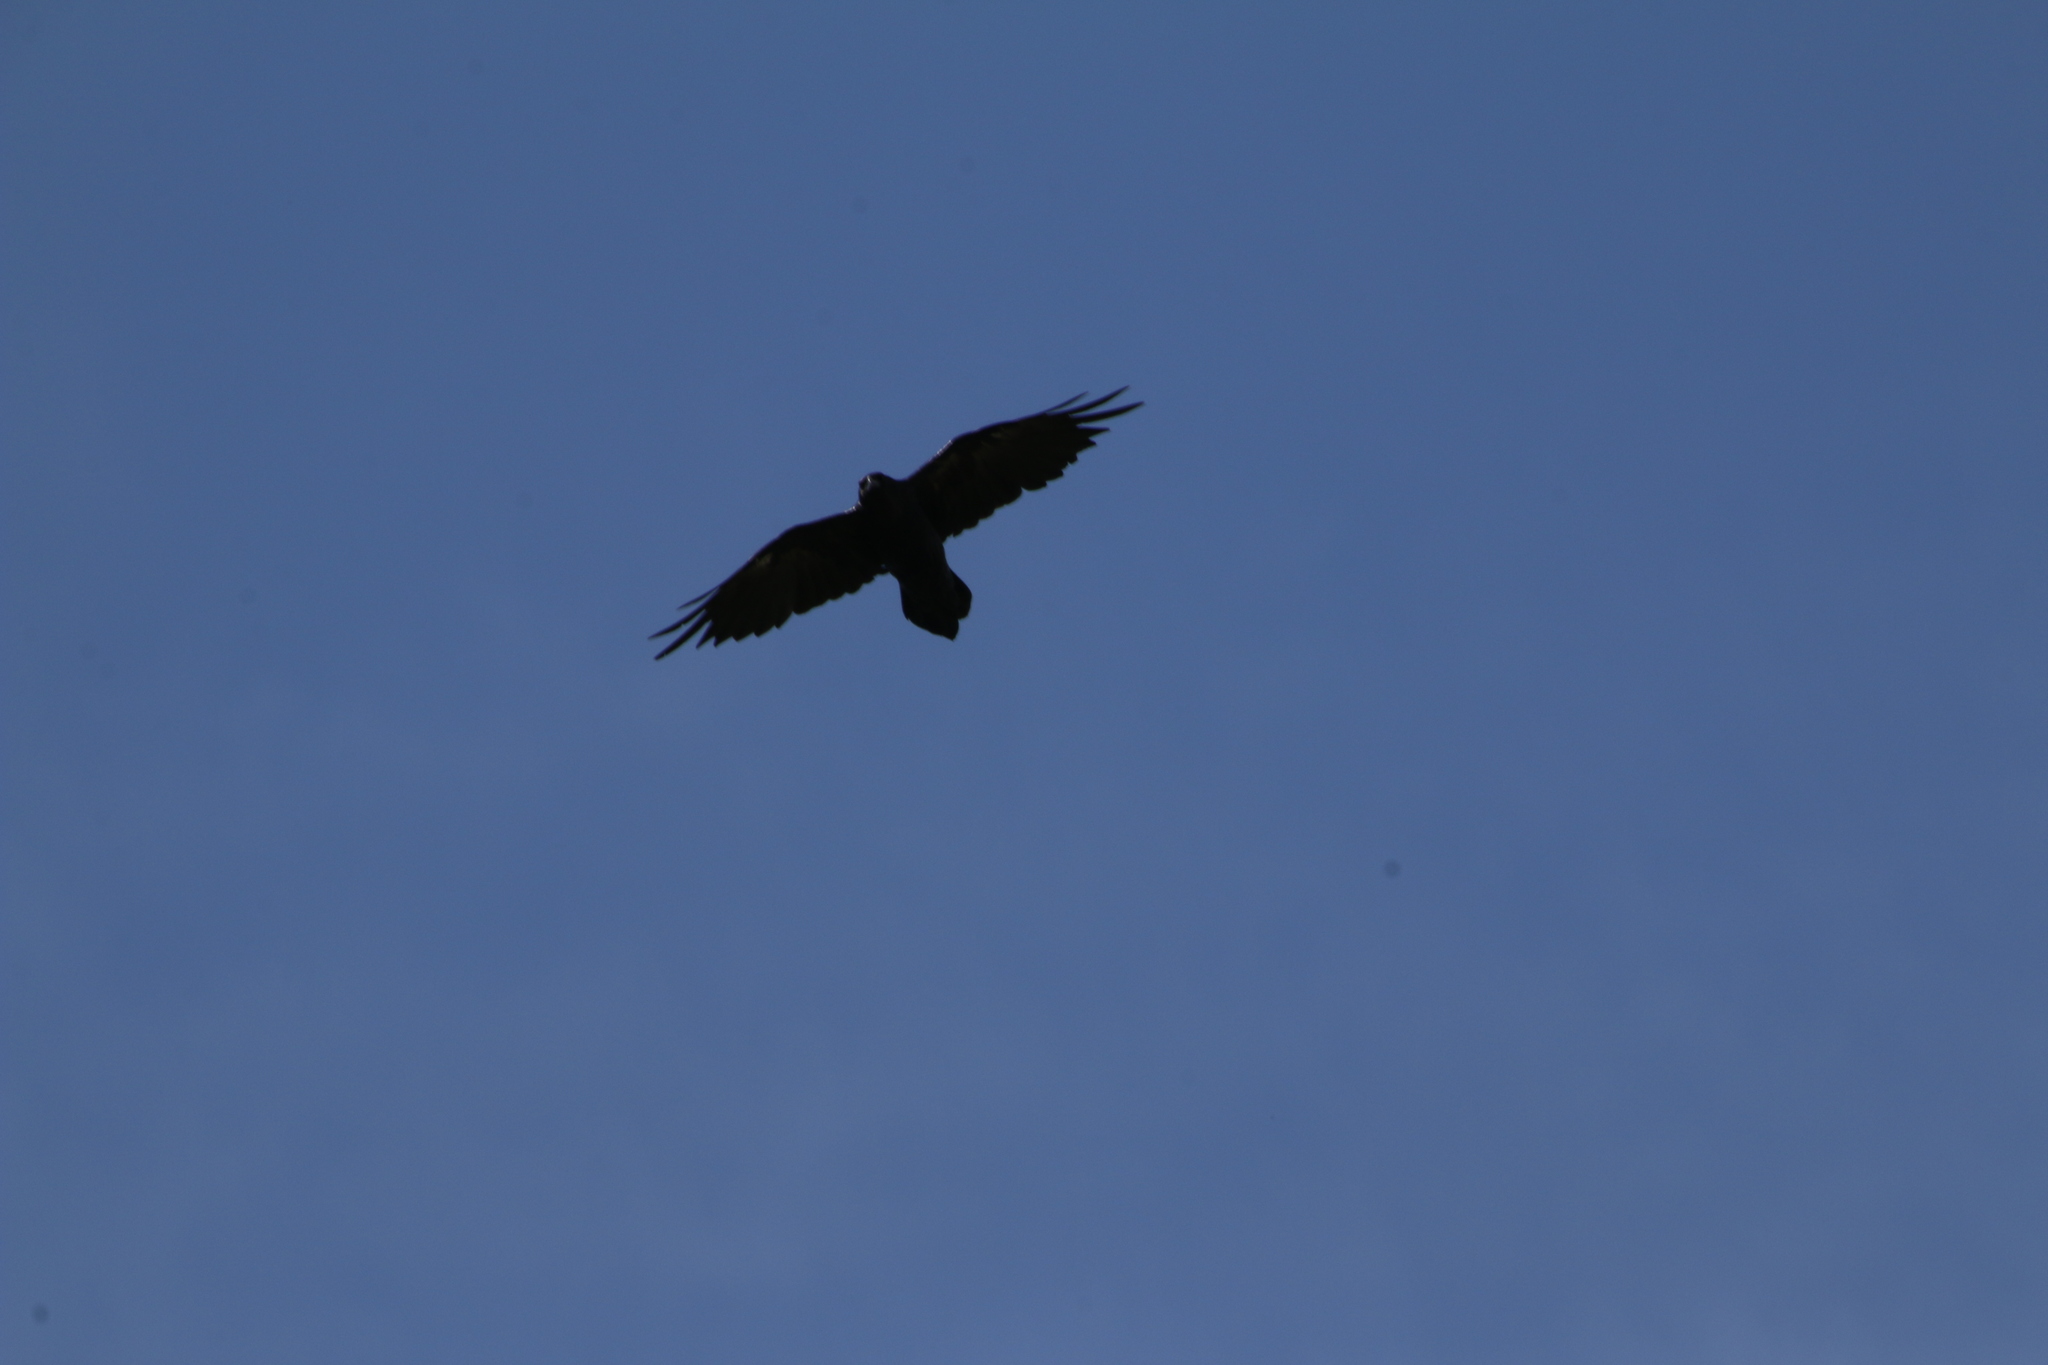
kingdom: Animalia
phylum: Chordata
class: Aves
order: Passeriformes
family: Corvidae
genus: Corvus
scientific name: Corvus corax
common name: Common raven
